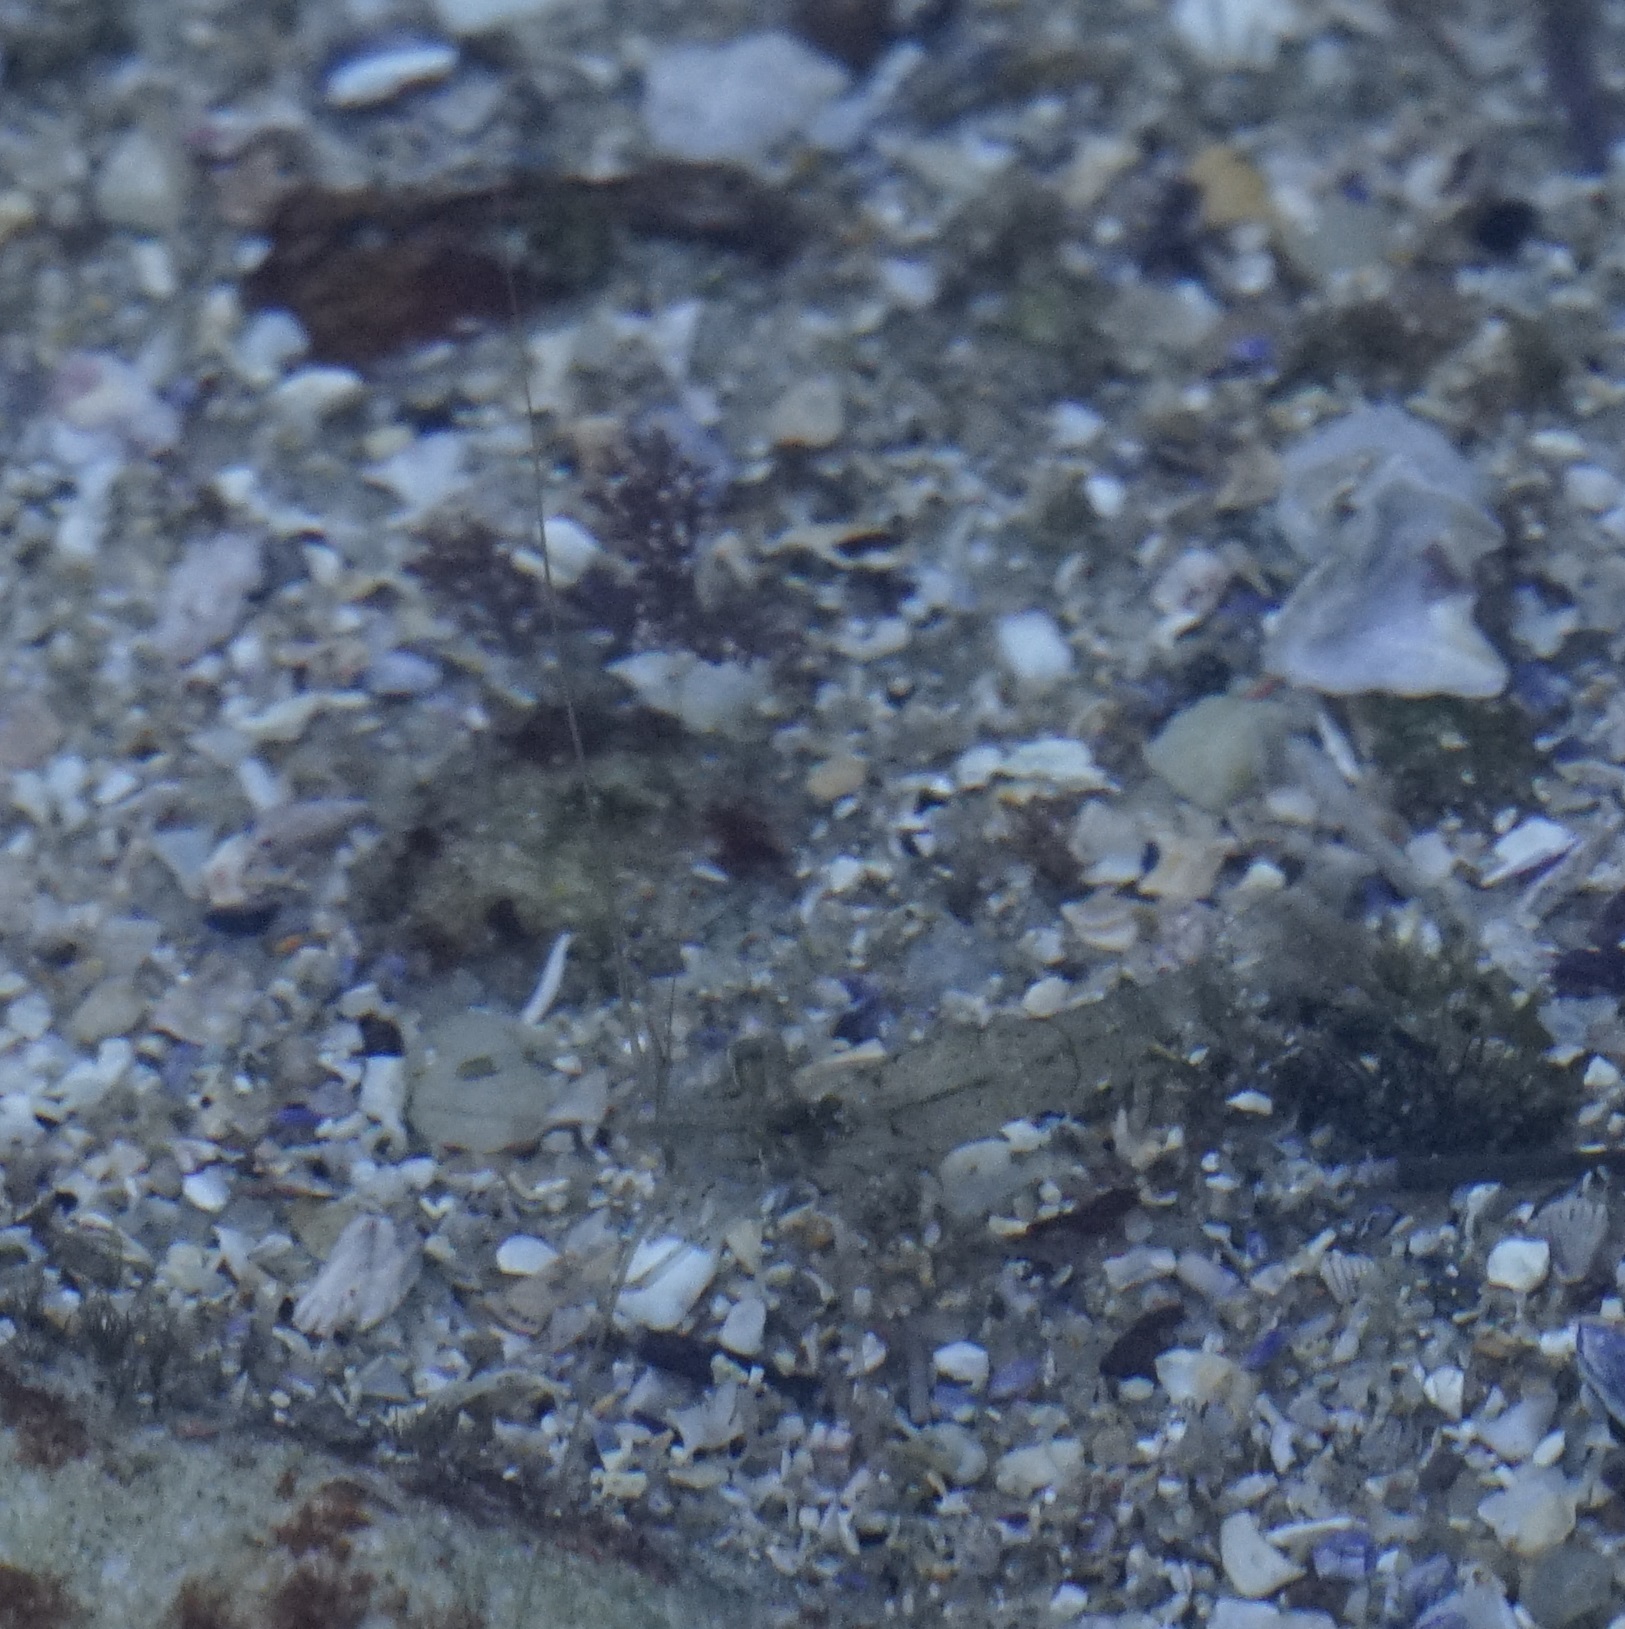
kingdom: Animalia
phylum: Arthropoda
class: Malacostraca
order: Decapoda
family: Palaemonidae
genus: Palaemon
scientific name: Palaemon serenus
